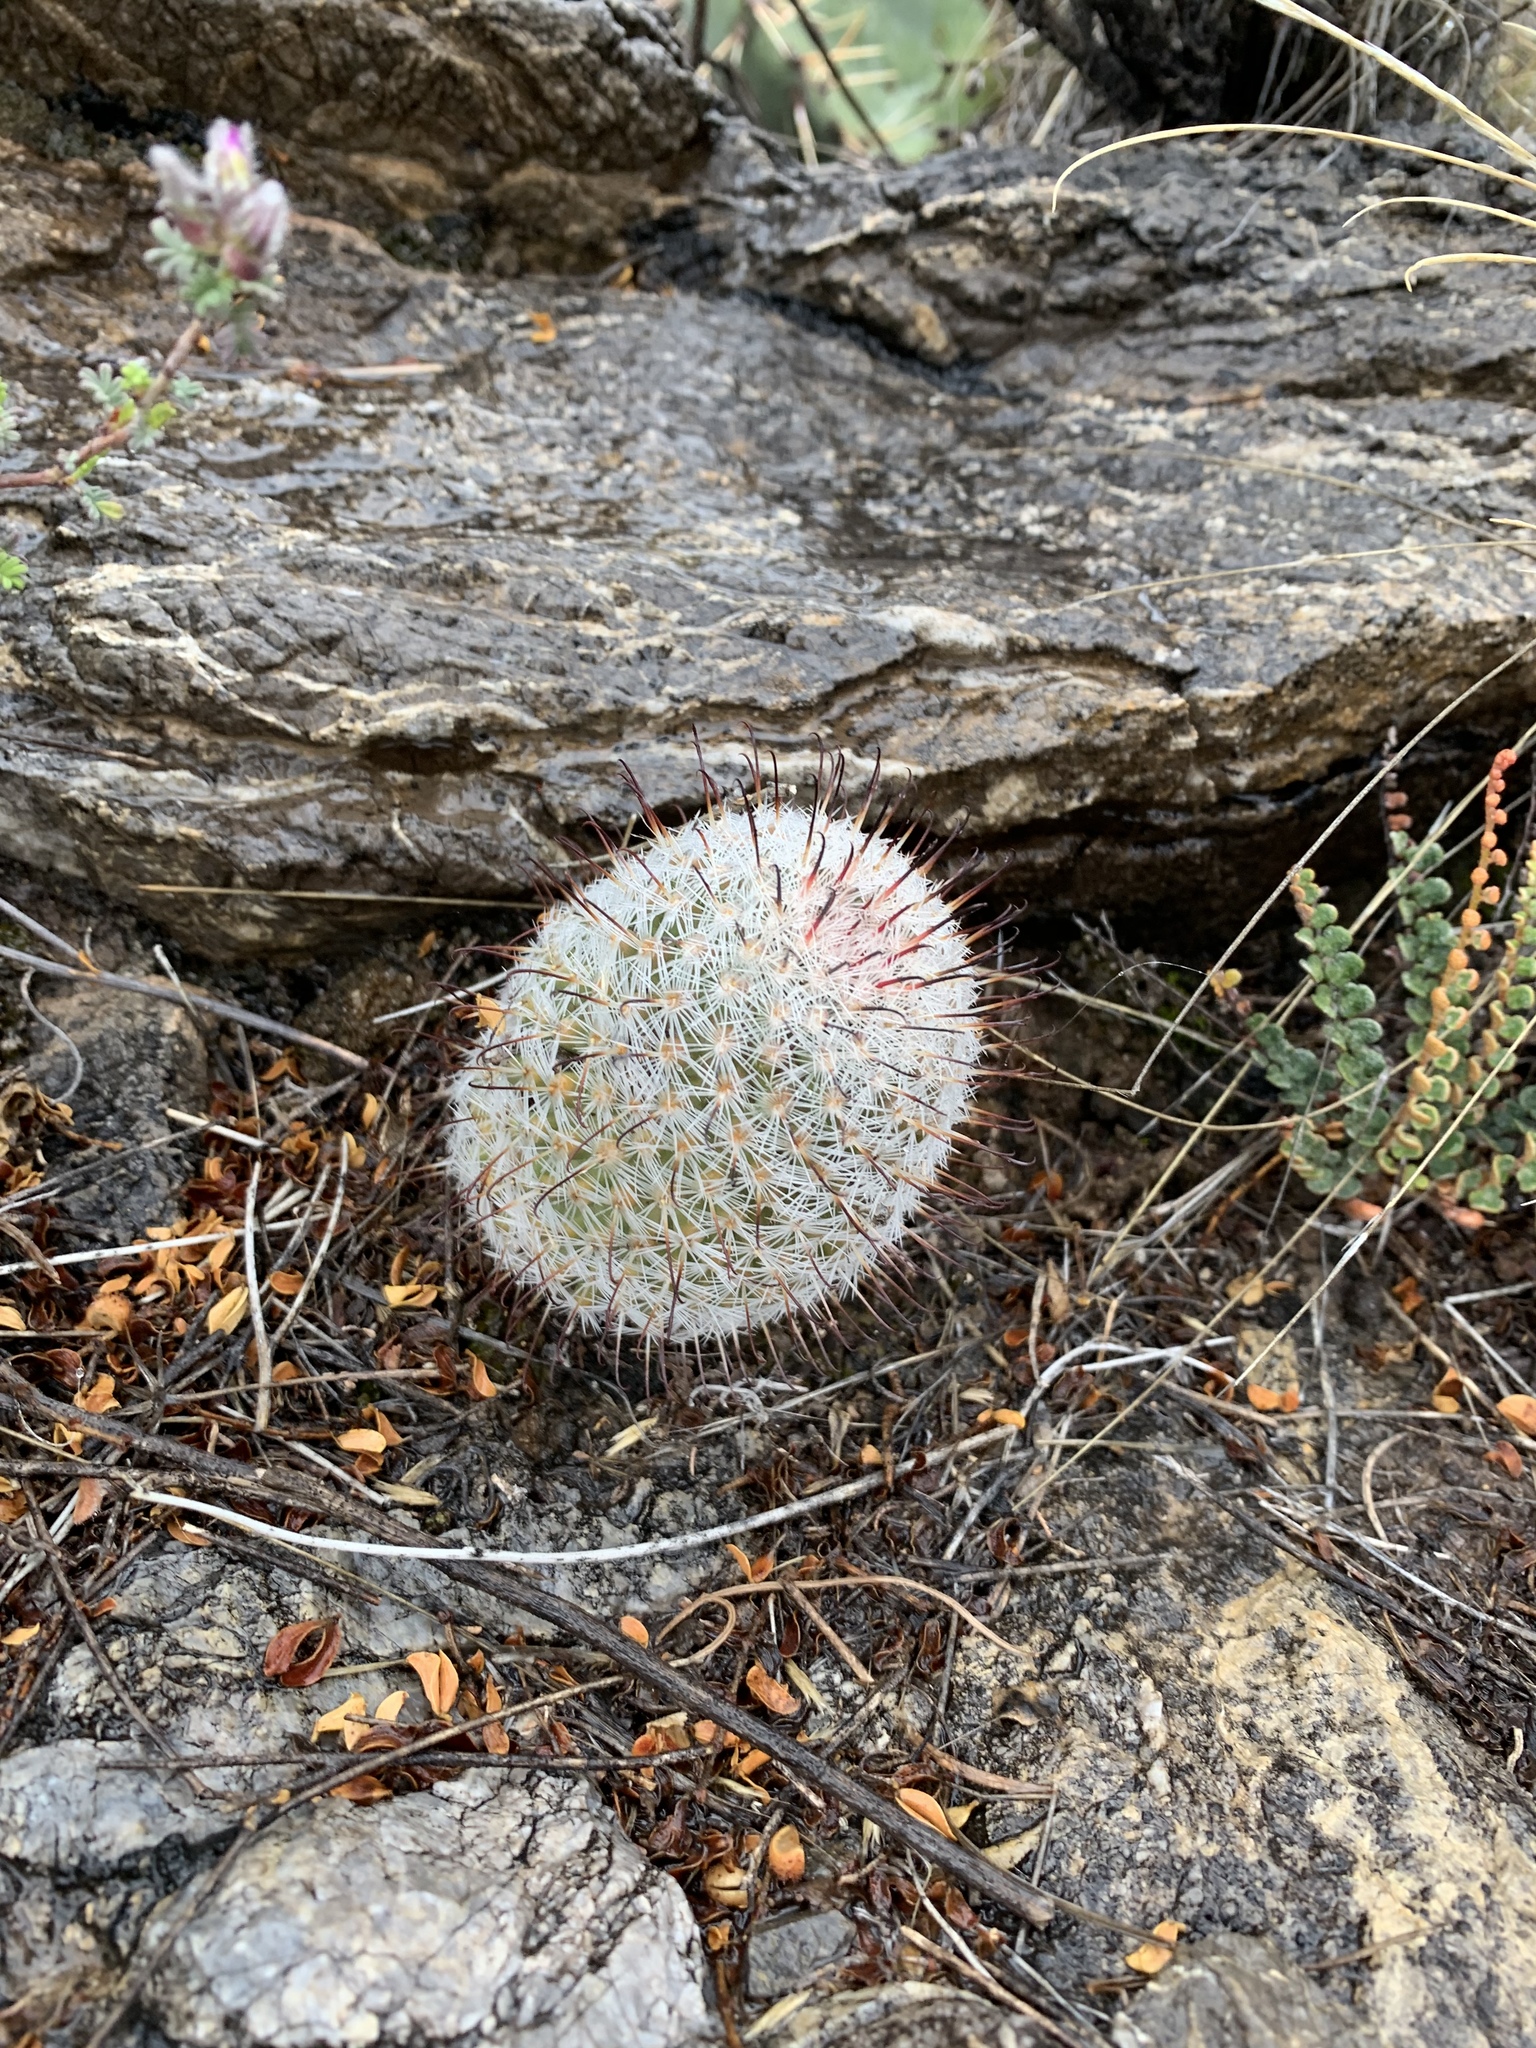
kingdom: Plantae
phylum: Tracheophyta
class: Magnoliopsida
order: Caryophyllales
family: Cactaceae
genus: Cochemiea
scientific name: Cochemiea grahamii
